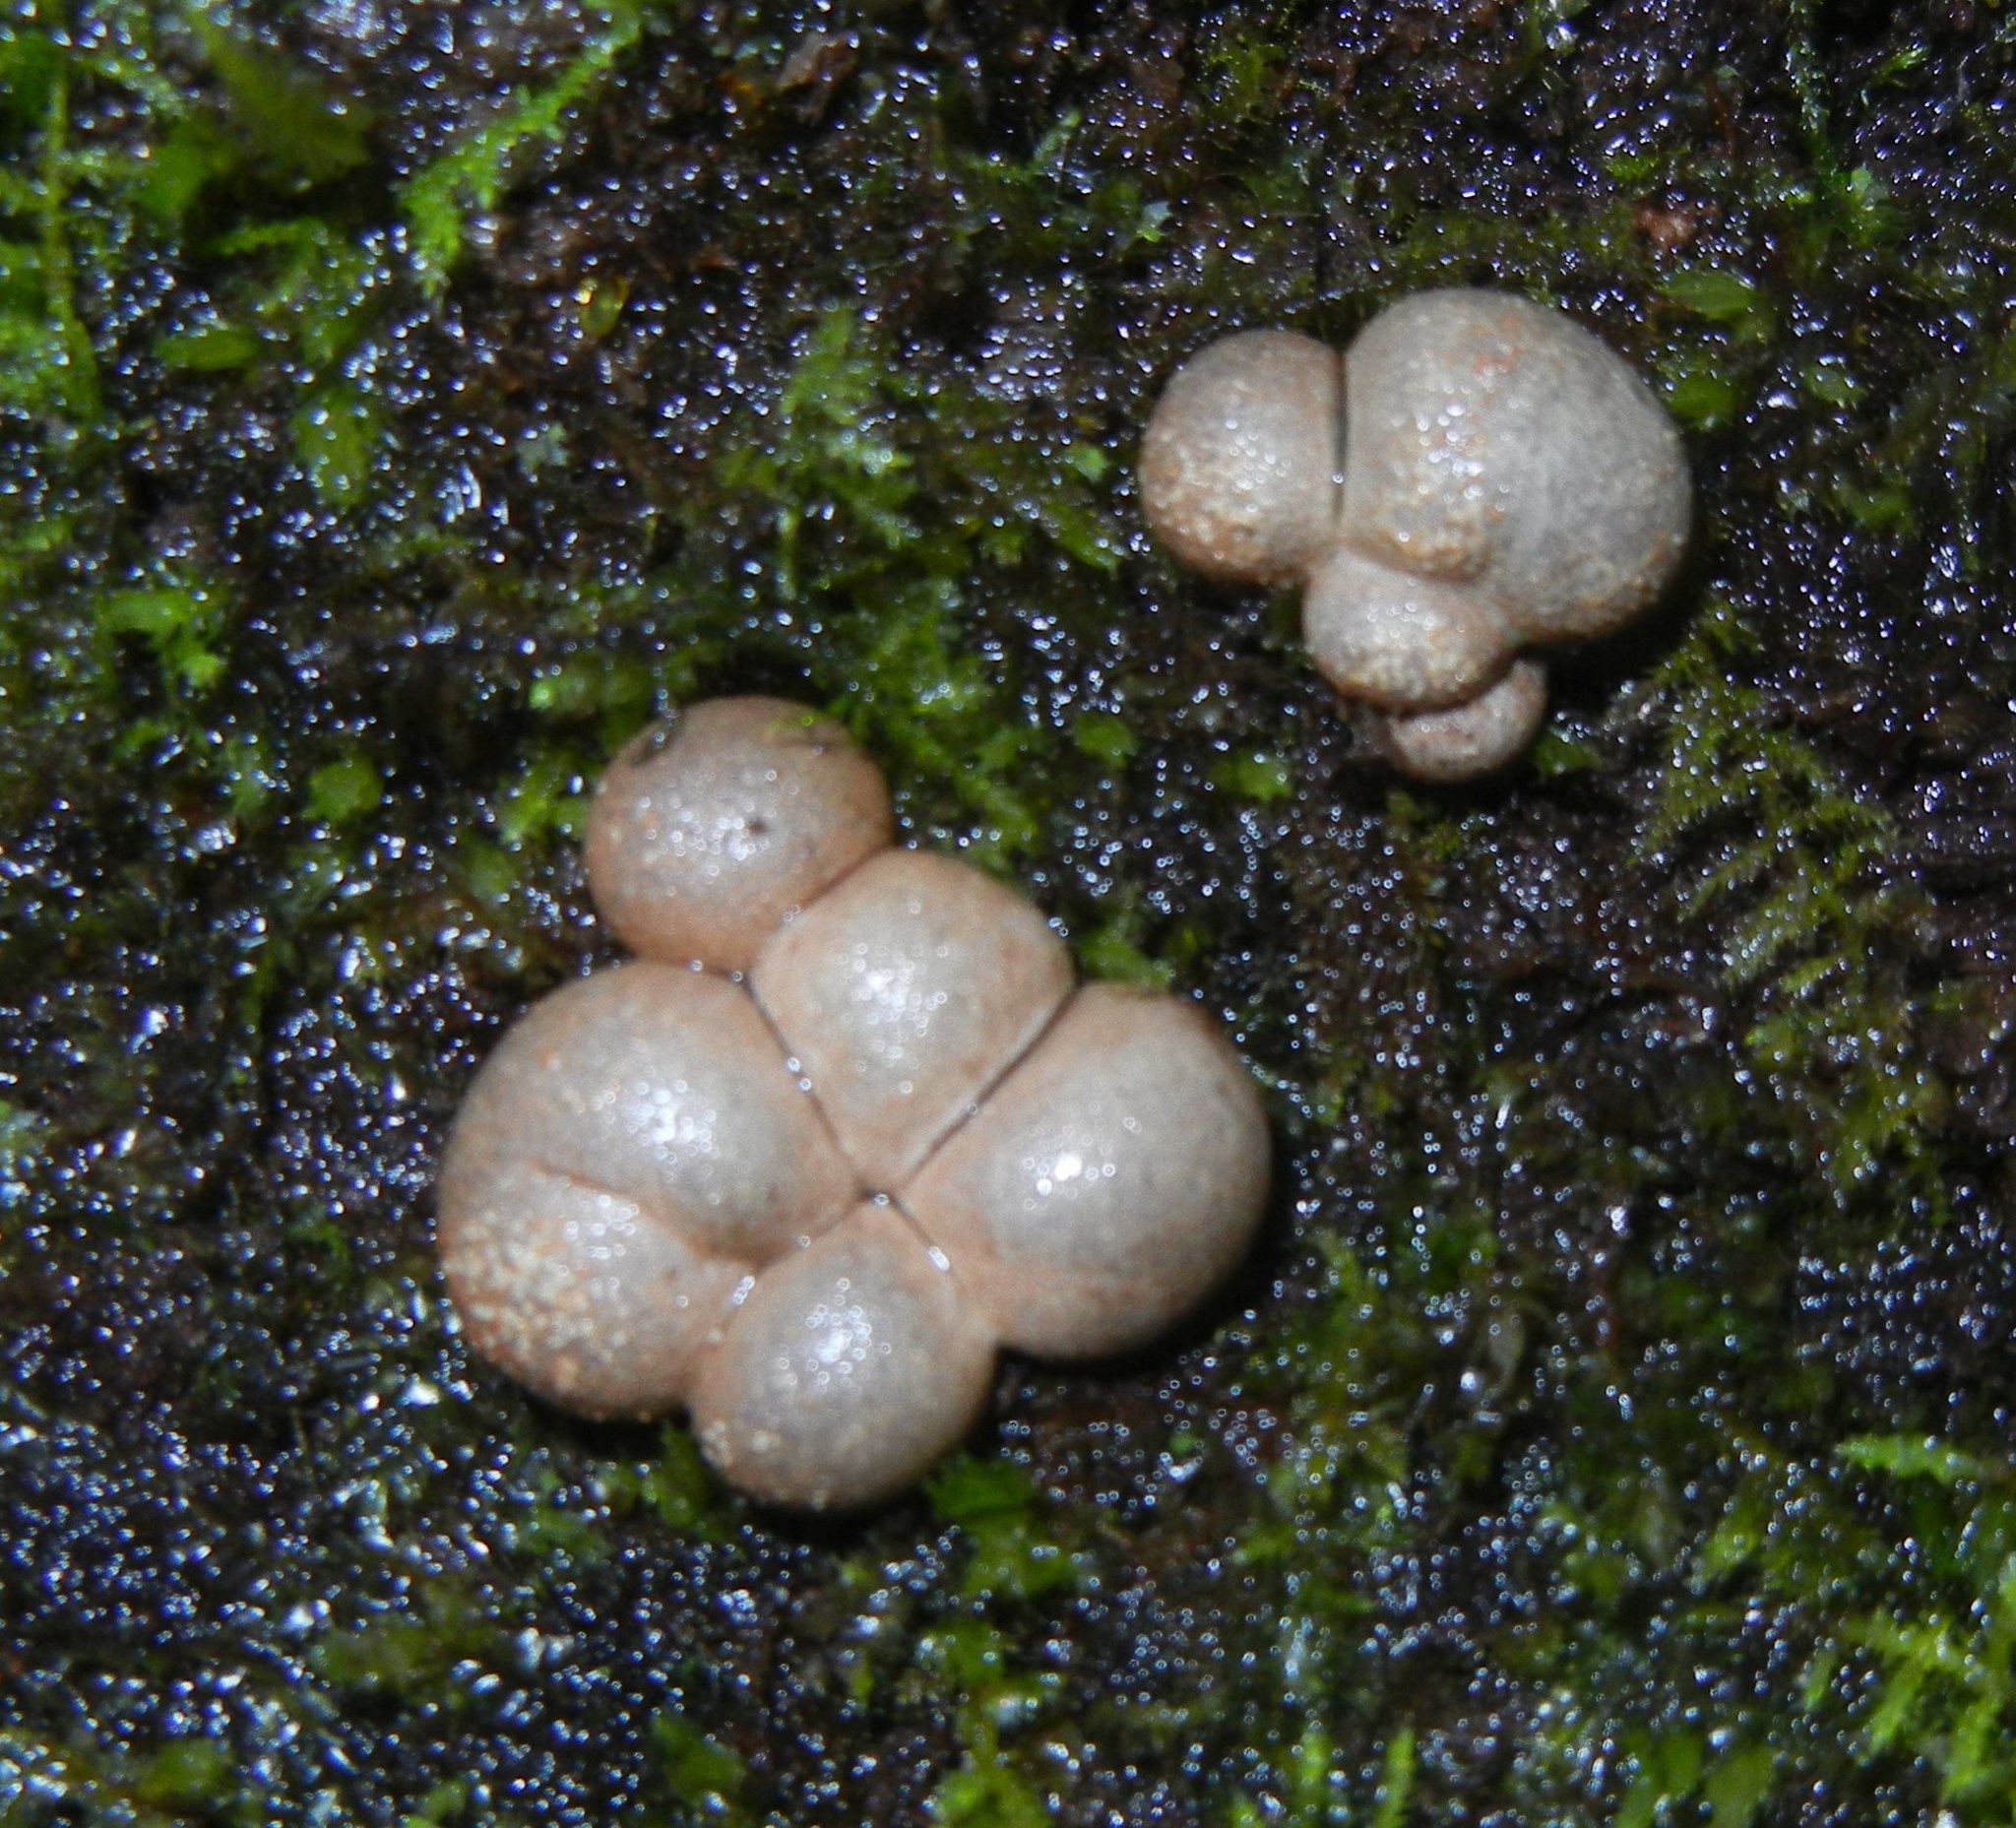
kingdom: Protozoa
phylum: Mycetozoa
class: Myxomycetes
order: Cribrariales
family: Tubiferaceae
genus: Lycogala
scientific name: Lycogala epidendrum
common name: Wolf's milk
